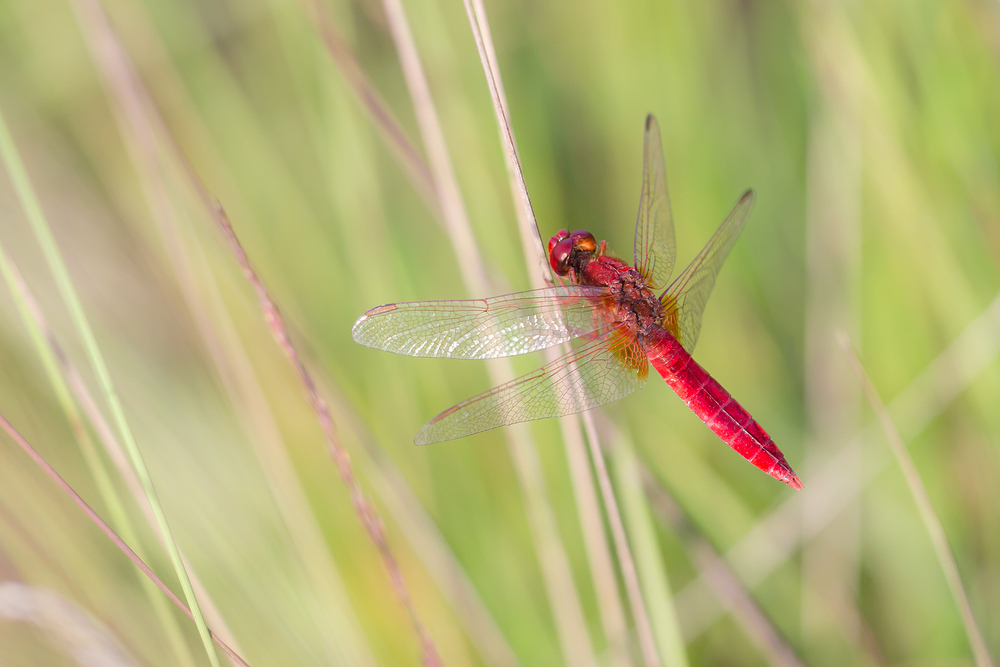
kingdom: Animalia
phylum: Arthropoda
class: Insecta
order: Odonata
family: Libellulidae
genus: Crocothemis
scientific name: Crocothemis erythraea
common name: Scarlet dragonfly
